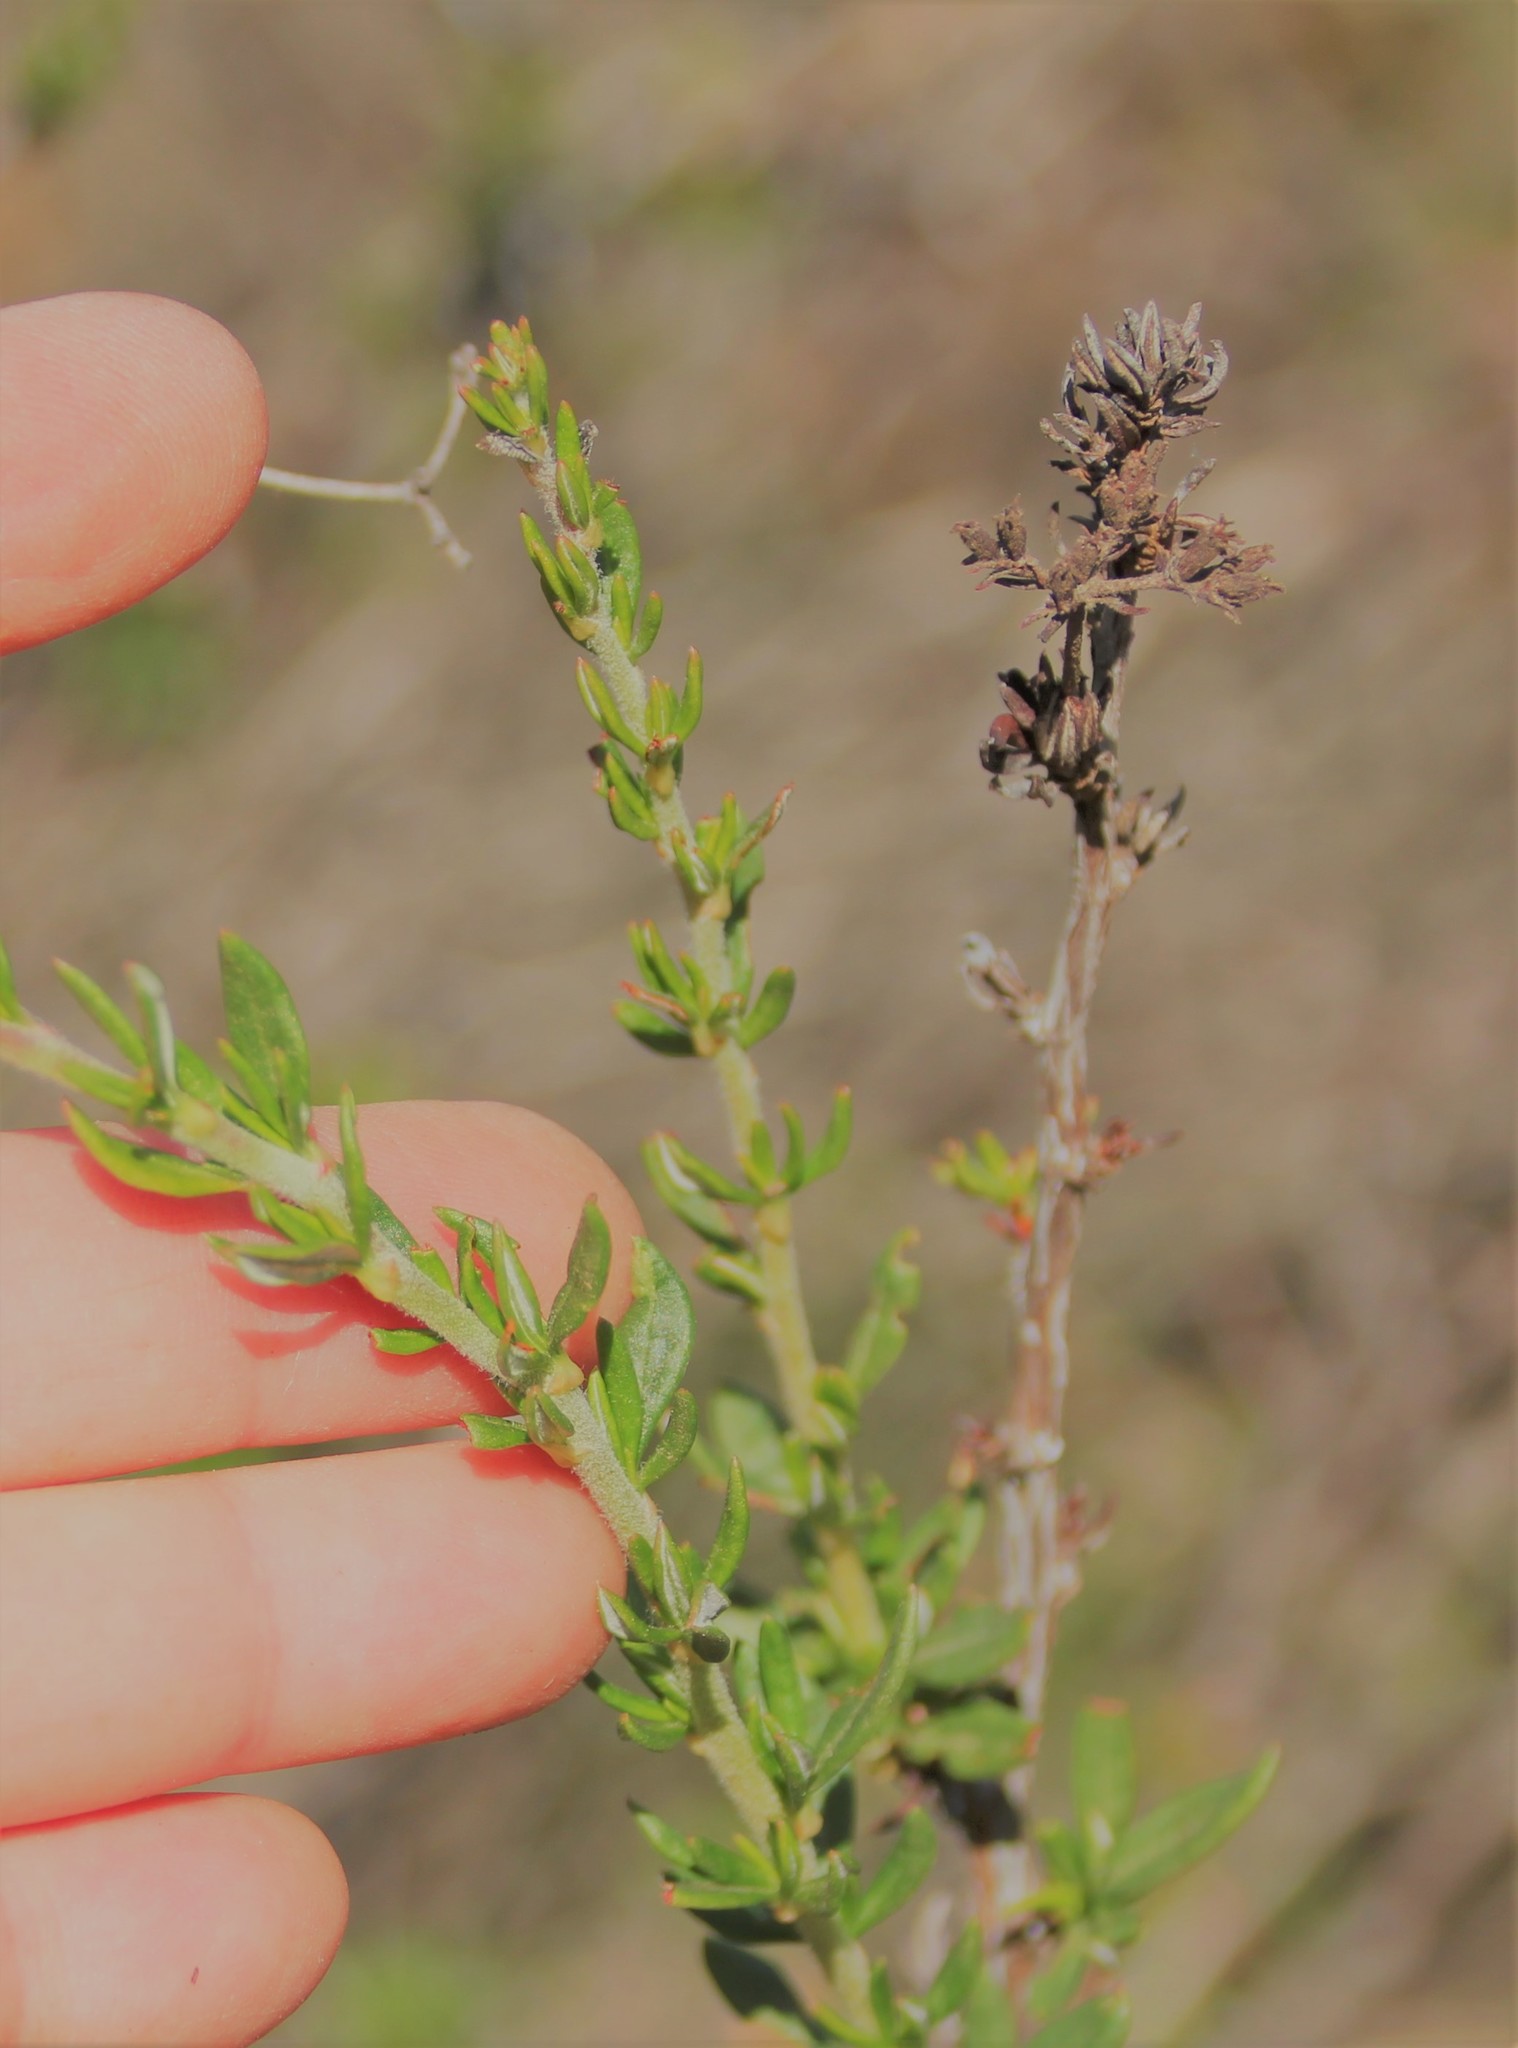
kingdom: Plantae
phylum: Tracheophyta
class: Magnoliopsida
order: Caryophyllales
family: Polygonaceae
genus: Eriogonum
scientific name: Eriogonum fasciculatum
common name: California wild buckwheat
